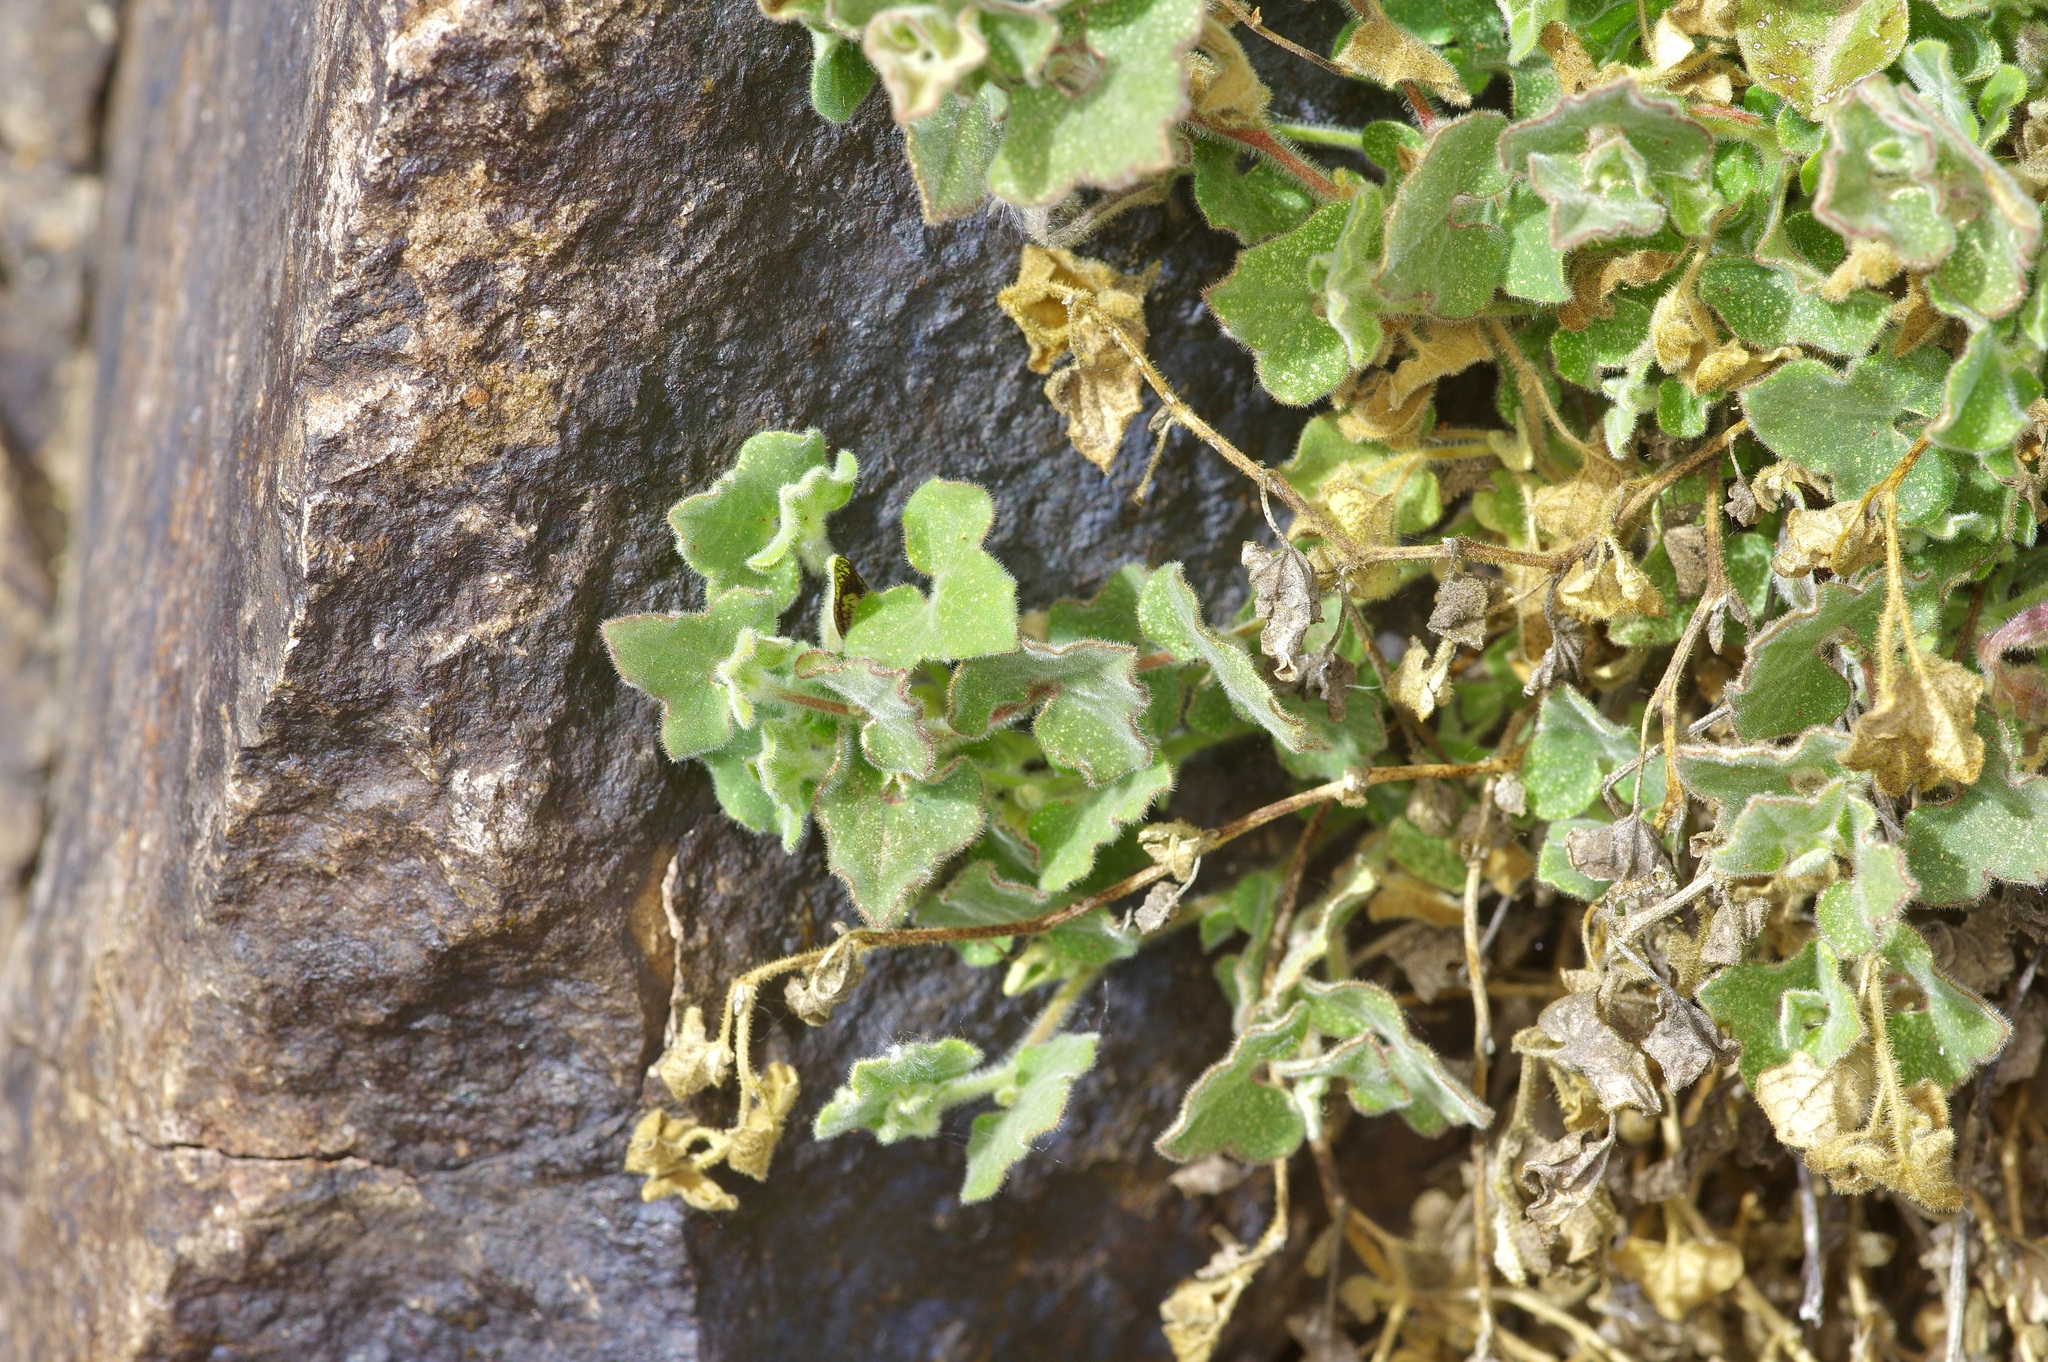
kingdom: Plantae
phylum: Tracheophyta
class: Magnoliopsida
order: Piperales
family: Aristolochiaceae
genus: Aristolochia
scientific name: Aristolochia wrightii
